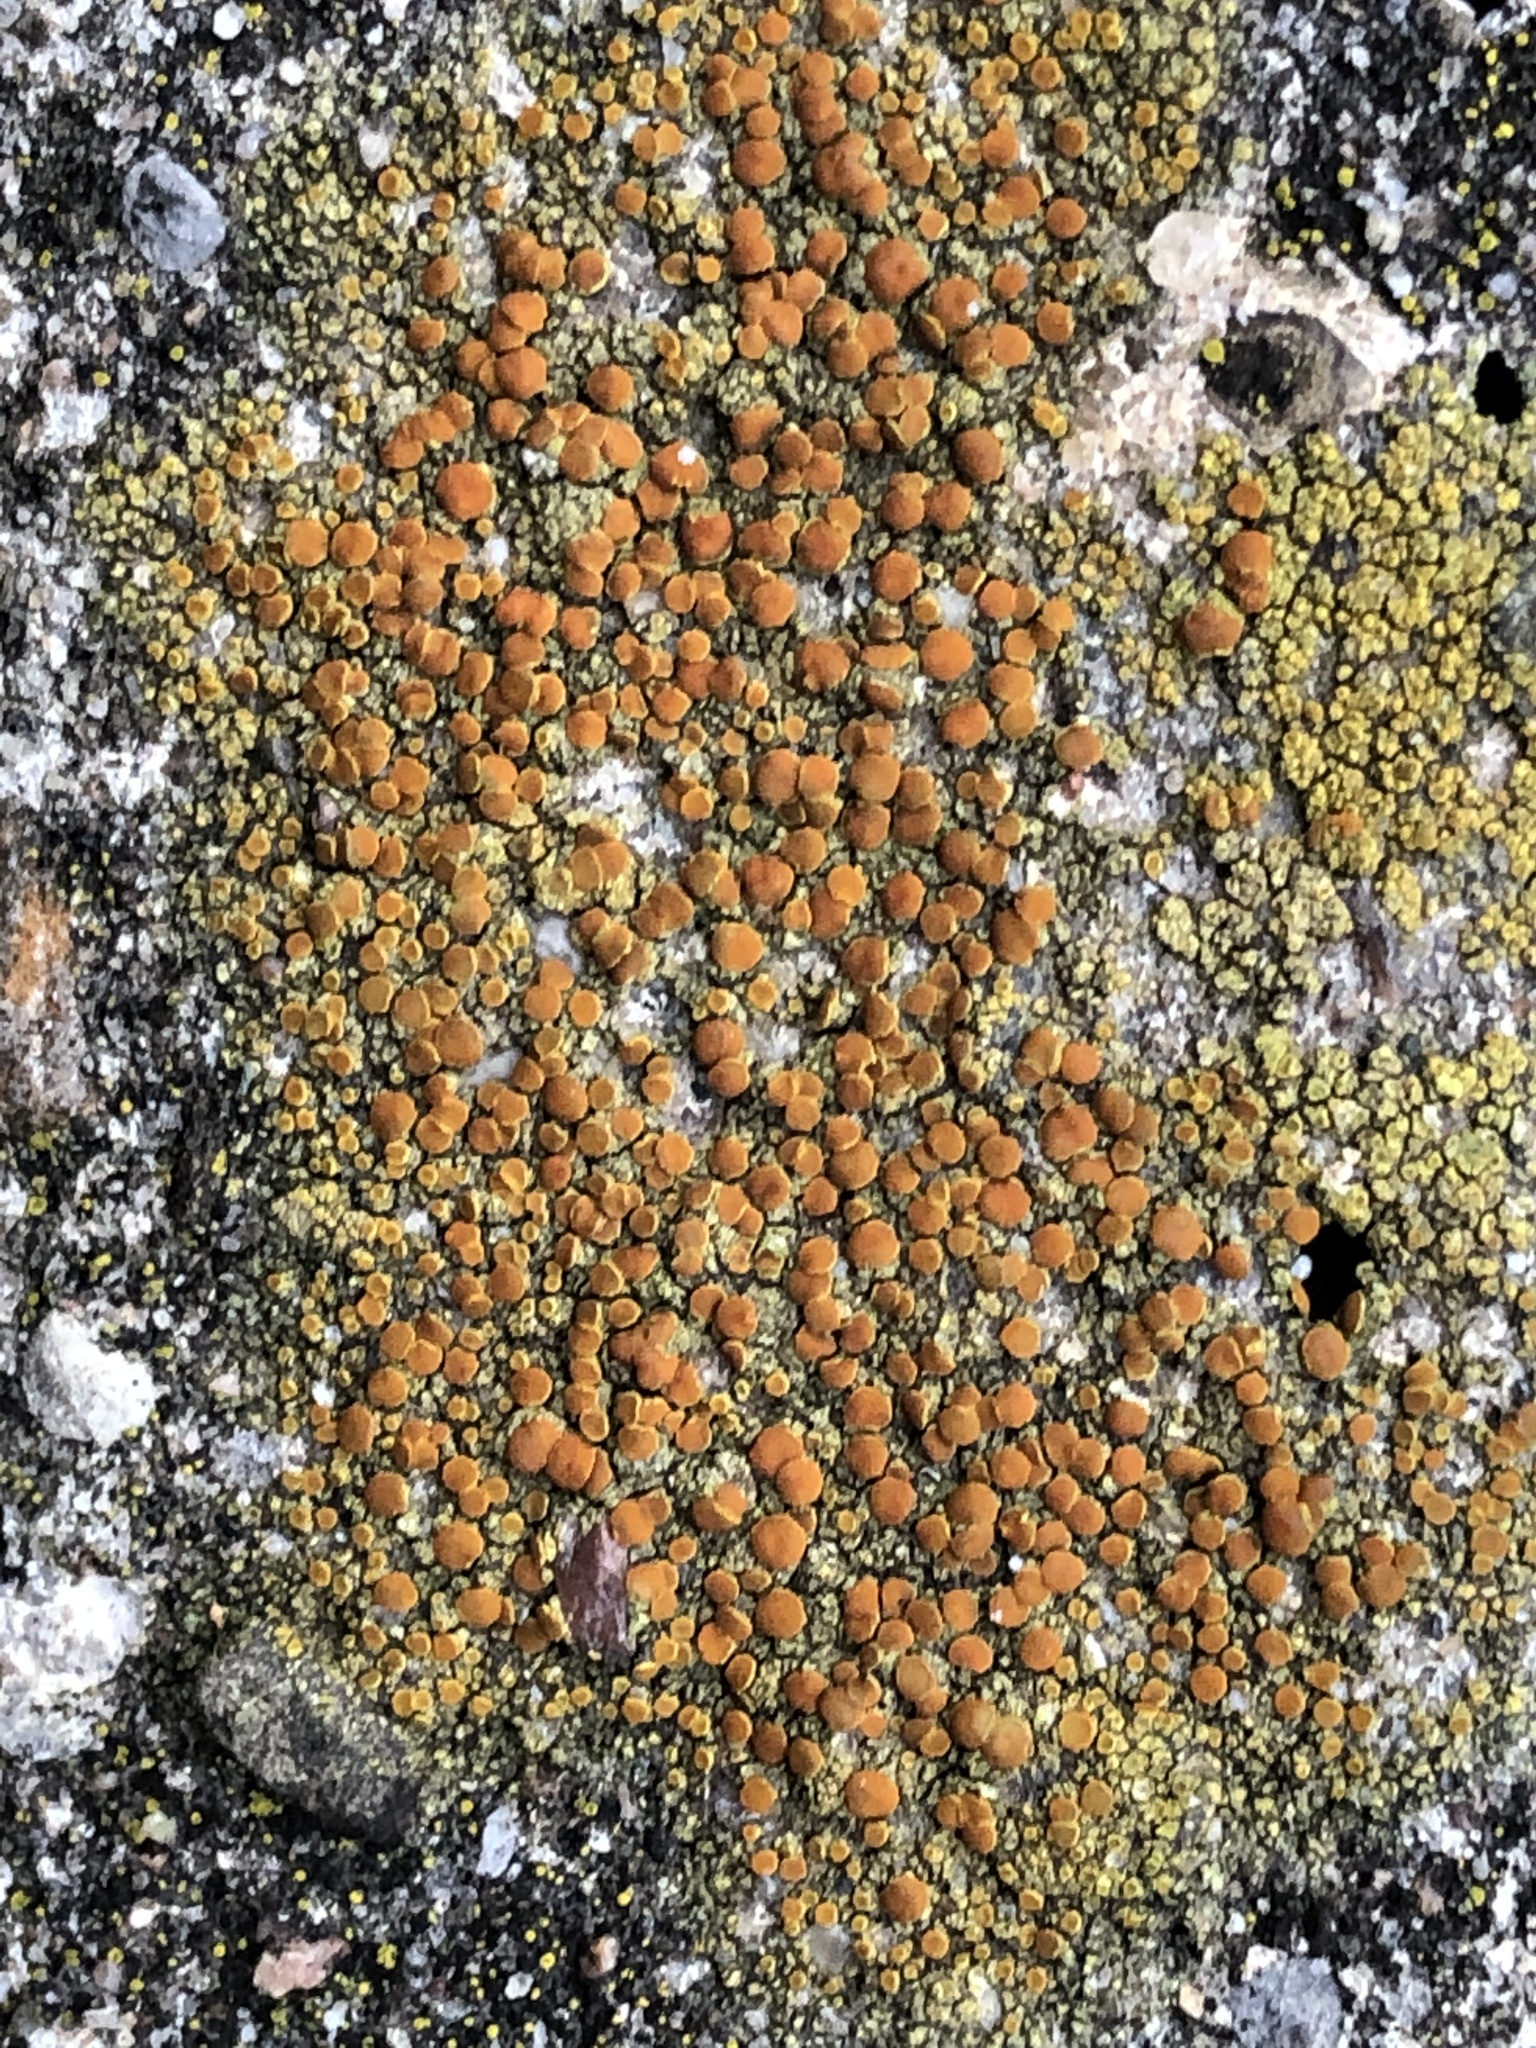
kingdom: Fungi
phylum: Ascomycota
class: Lecanoromycetes
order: Teloschistales
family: Teloschistaceae
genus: Gyalolechia
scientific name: Gyalolechia flavovirescens
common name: Sulphur firedot
